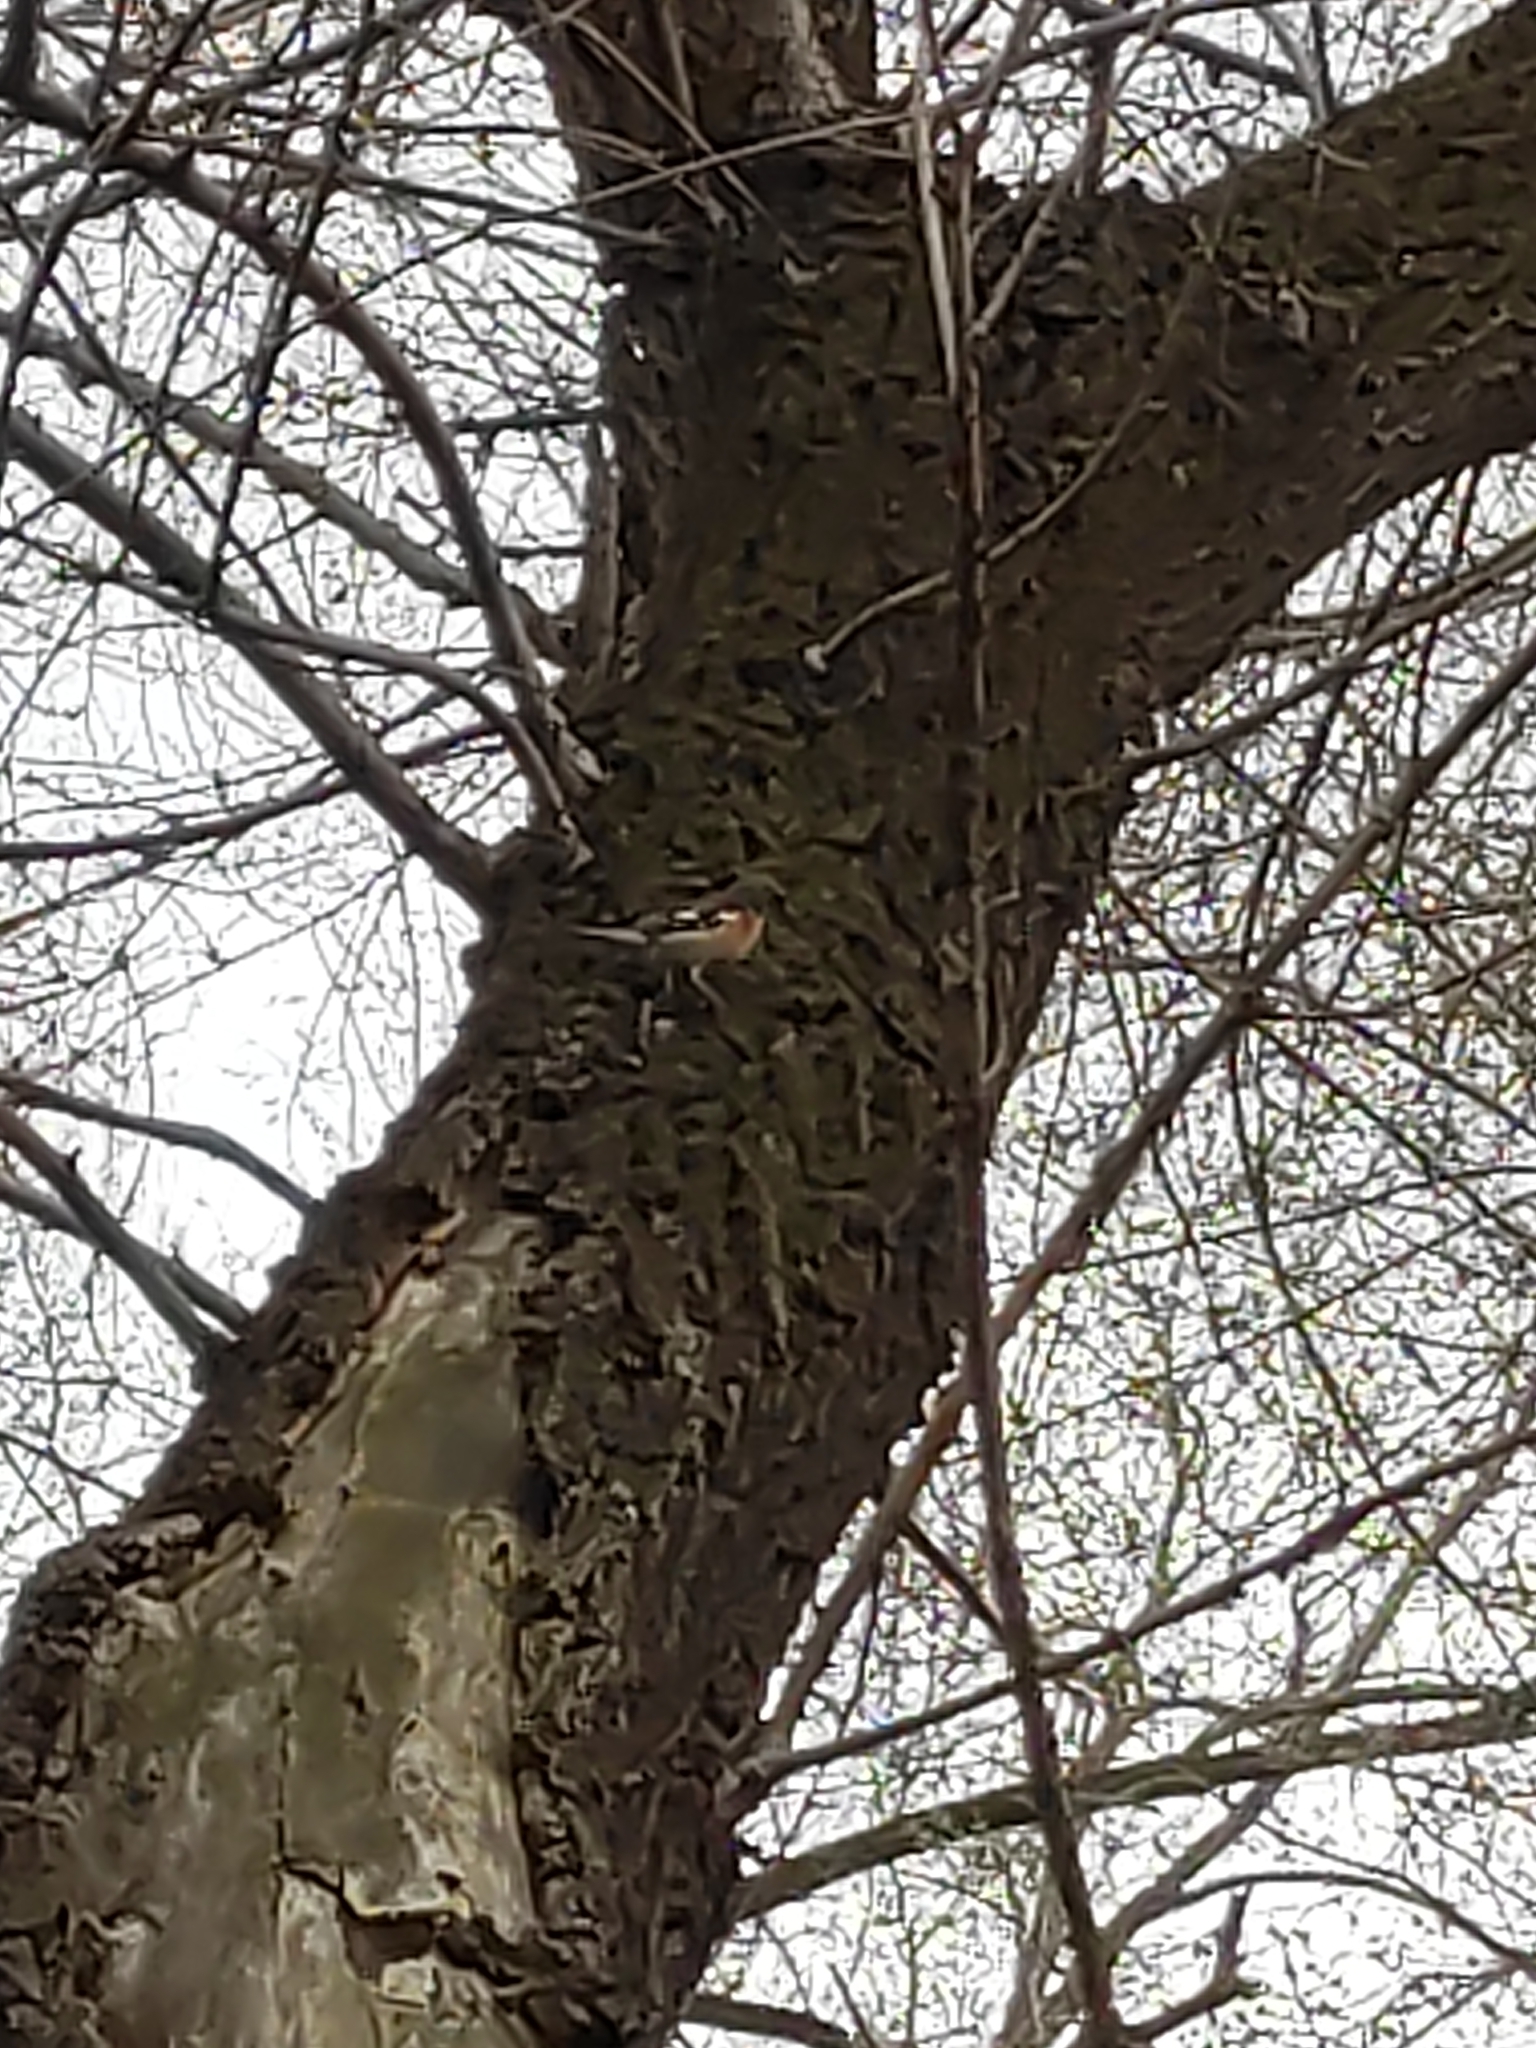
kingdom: Animalia
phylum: Chordata
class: Aves
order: Passeriformes
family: Fringillidae
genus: Fringilla
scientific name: Fringilla coelebs
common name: Common chaffinch
